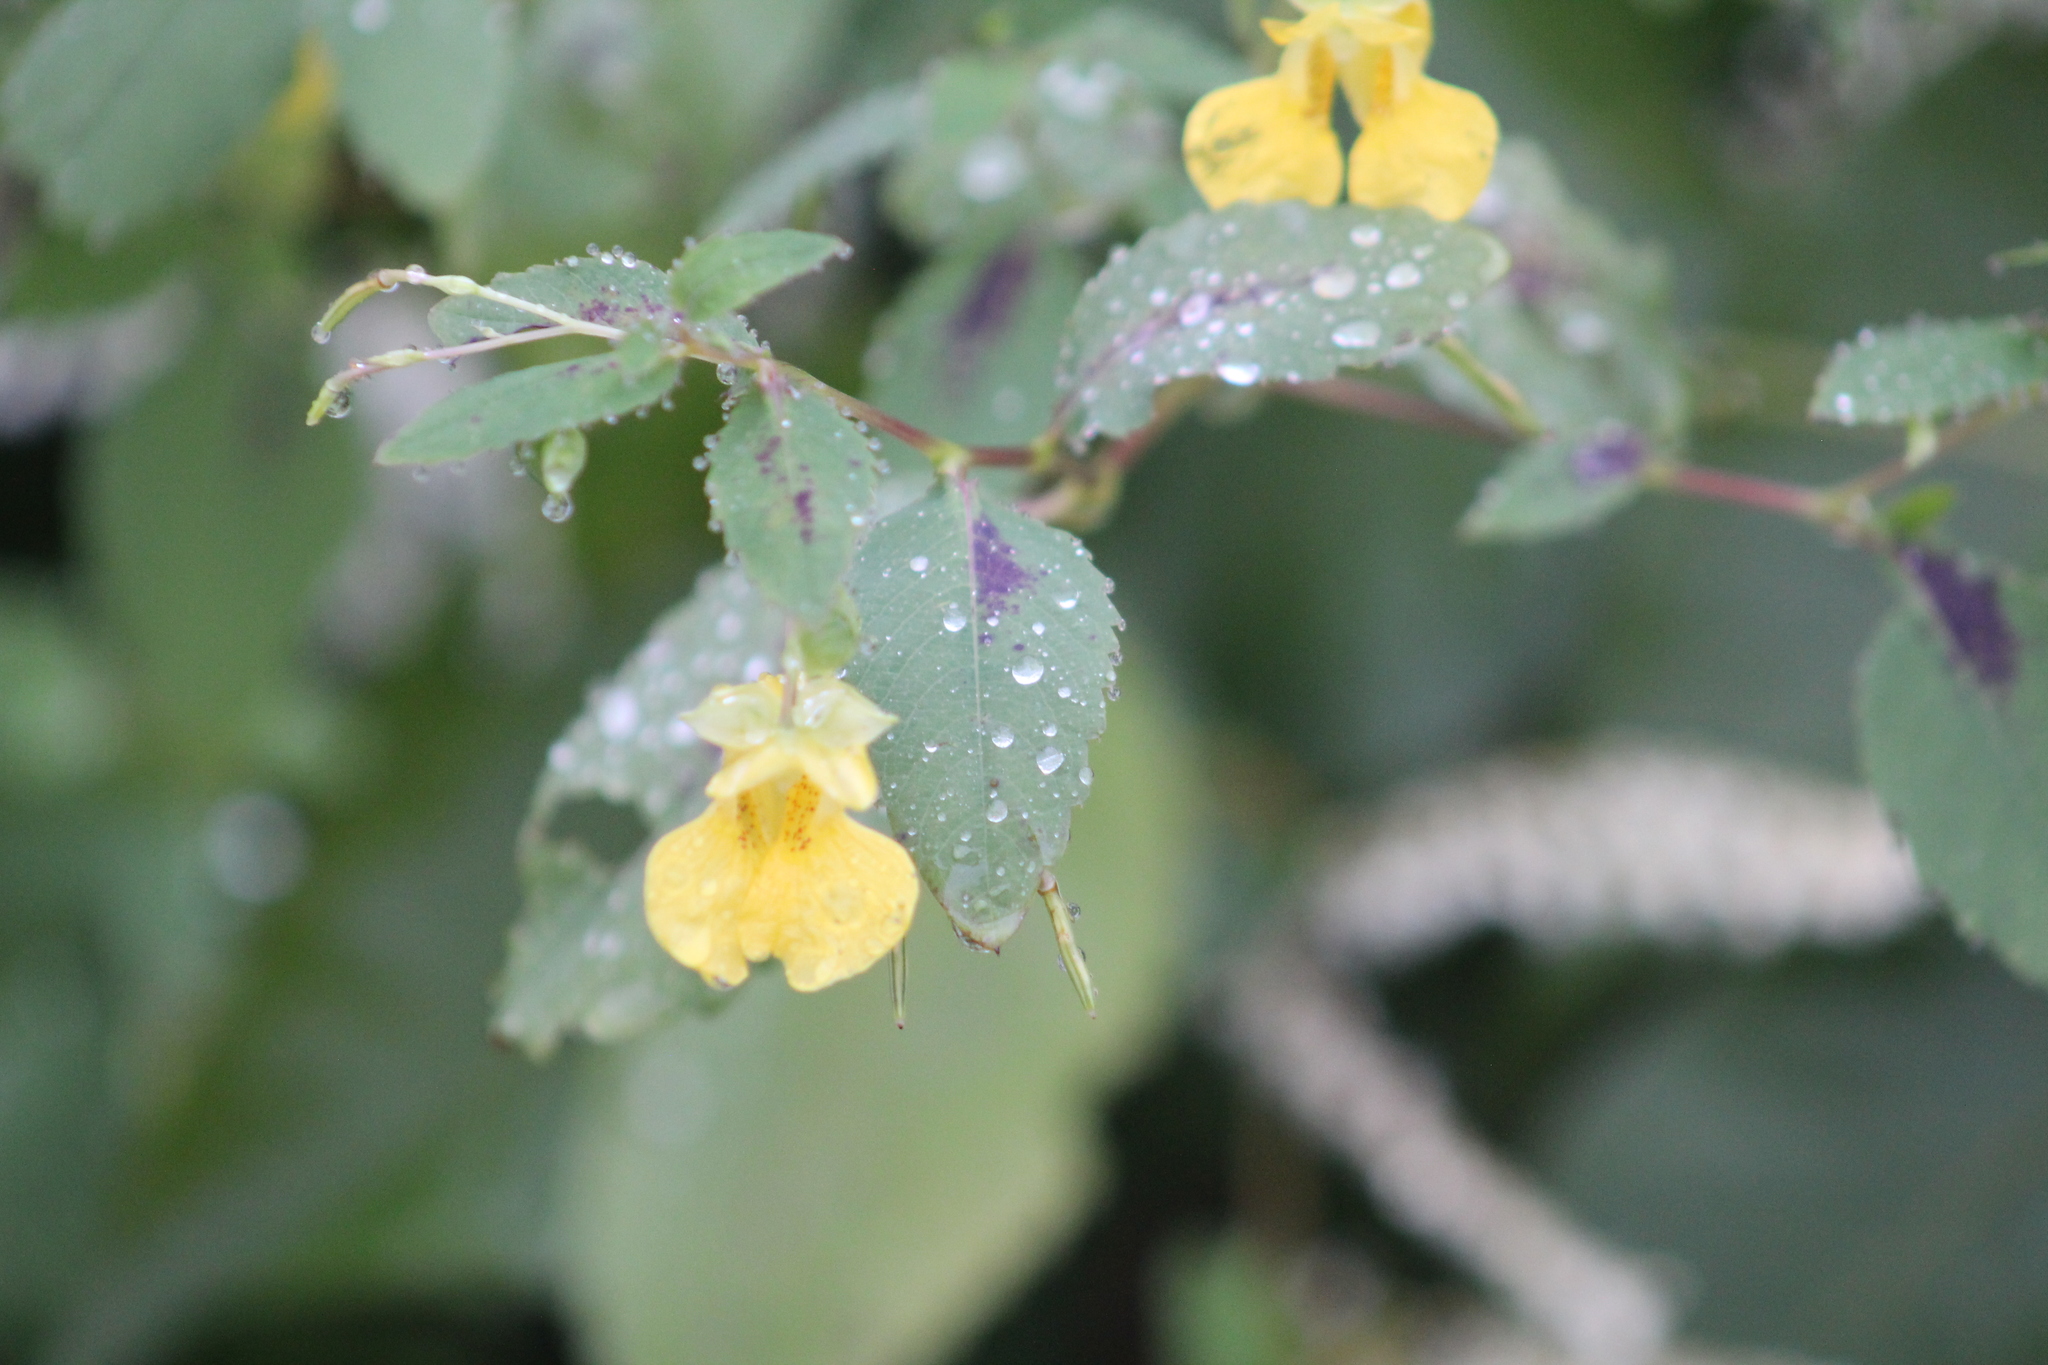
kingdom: Plantae
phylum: Tracheophyta
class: Magnoliopsida
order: Ericales
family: Balsaminaceae
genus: Impatiens
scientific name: Impatiens pallida
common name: Pale snapweed
